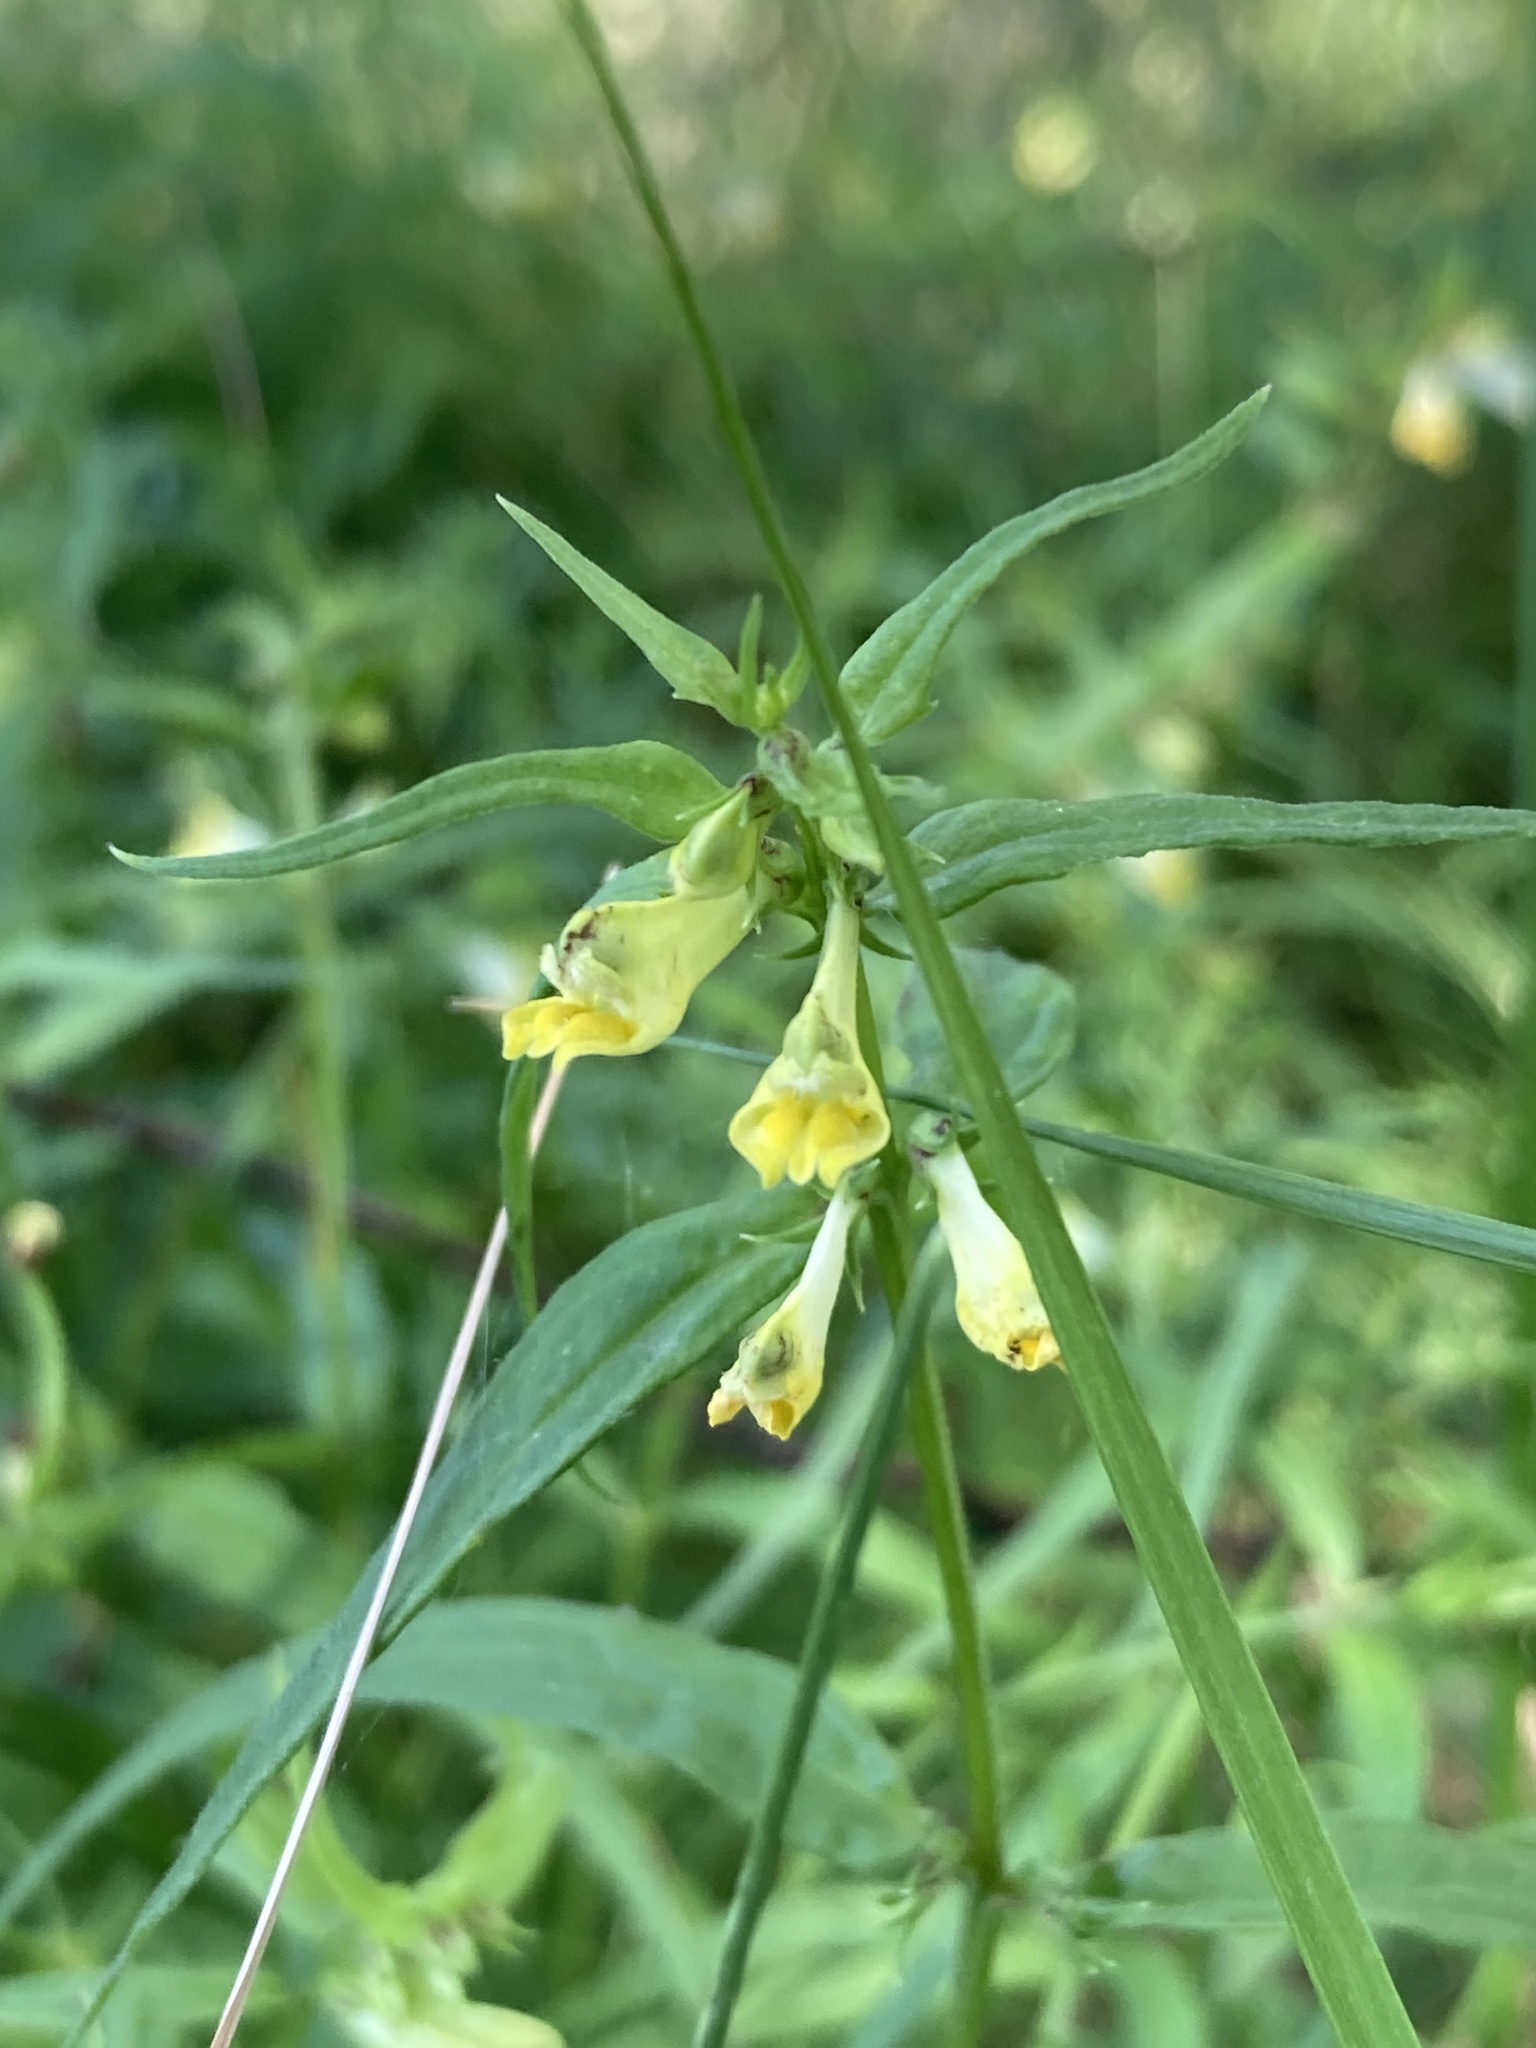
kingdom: Plantae
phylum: Tracheophyta
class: Magnoliopsida
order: Lamiales
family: Orobanchaceae
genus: Melampyrum
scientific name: Melampyrum pratense
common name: Common cow-wheat
